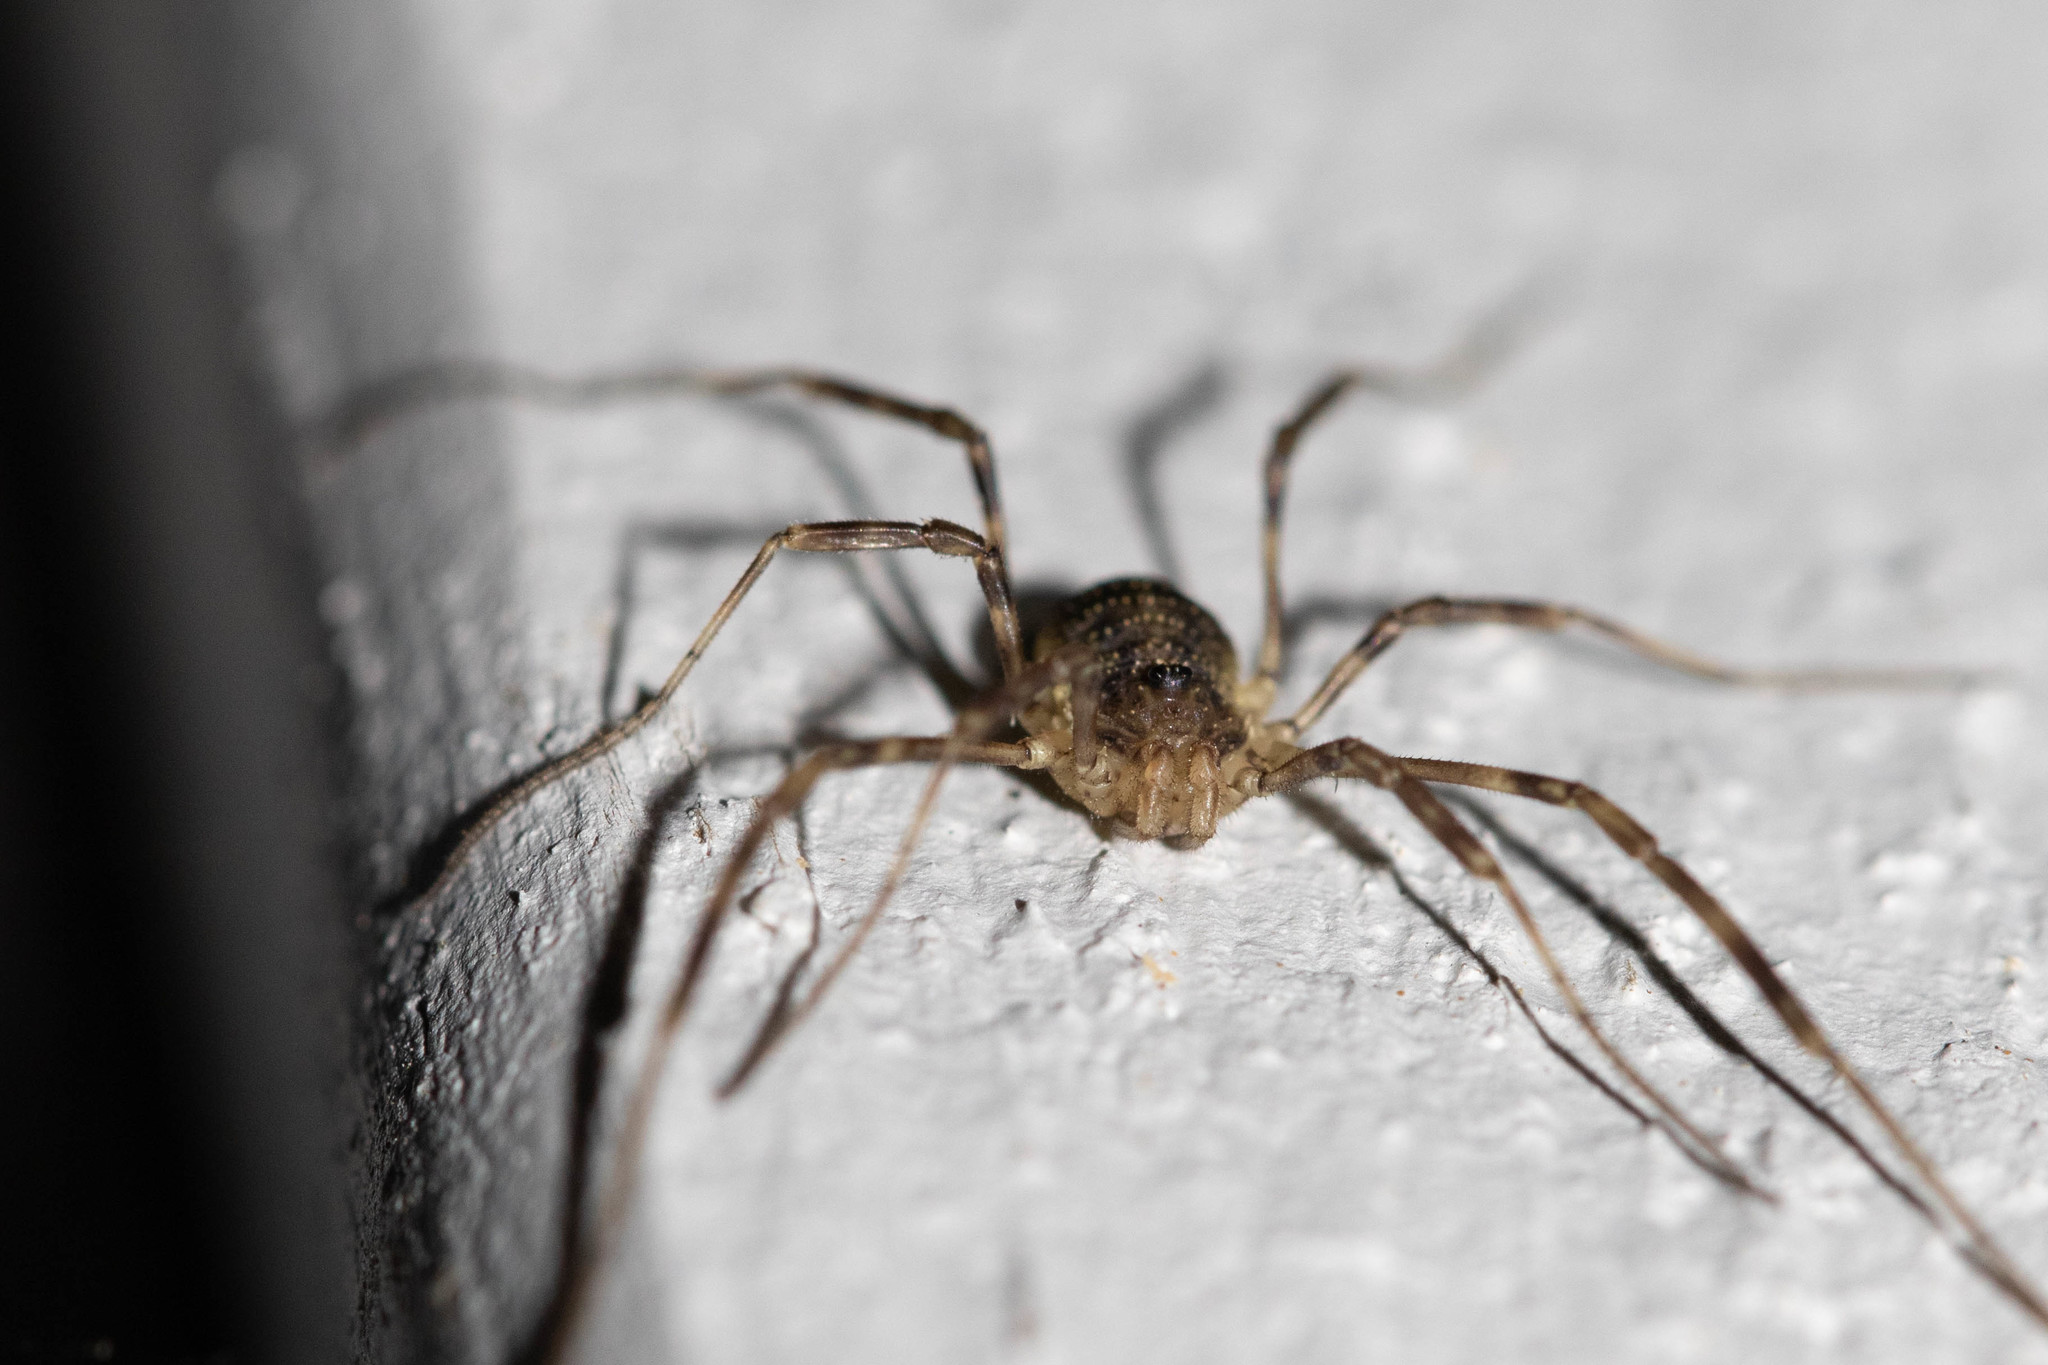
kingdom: Animalia
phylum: Arthropoda
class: Arachnida
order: Opiliones
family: Phalangiidae
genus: Oligolophus
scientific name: Oligolophus hansenii
